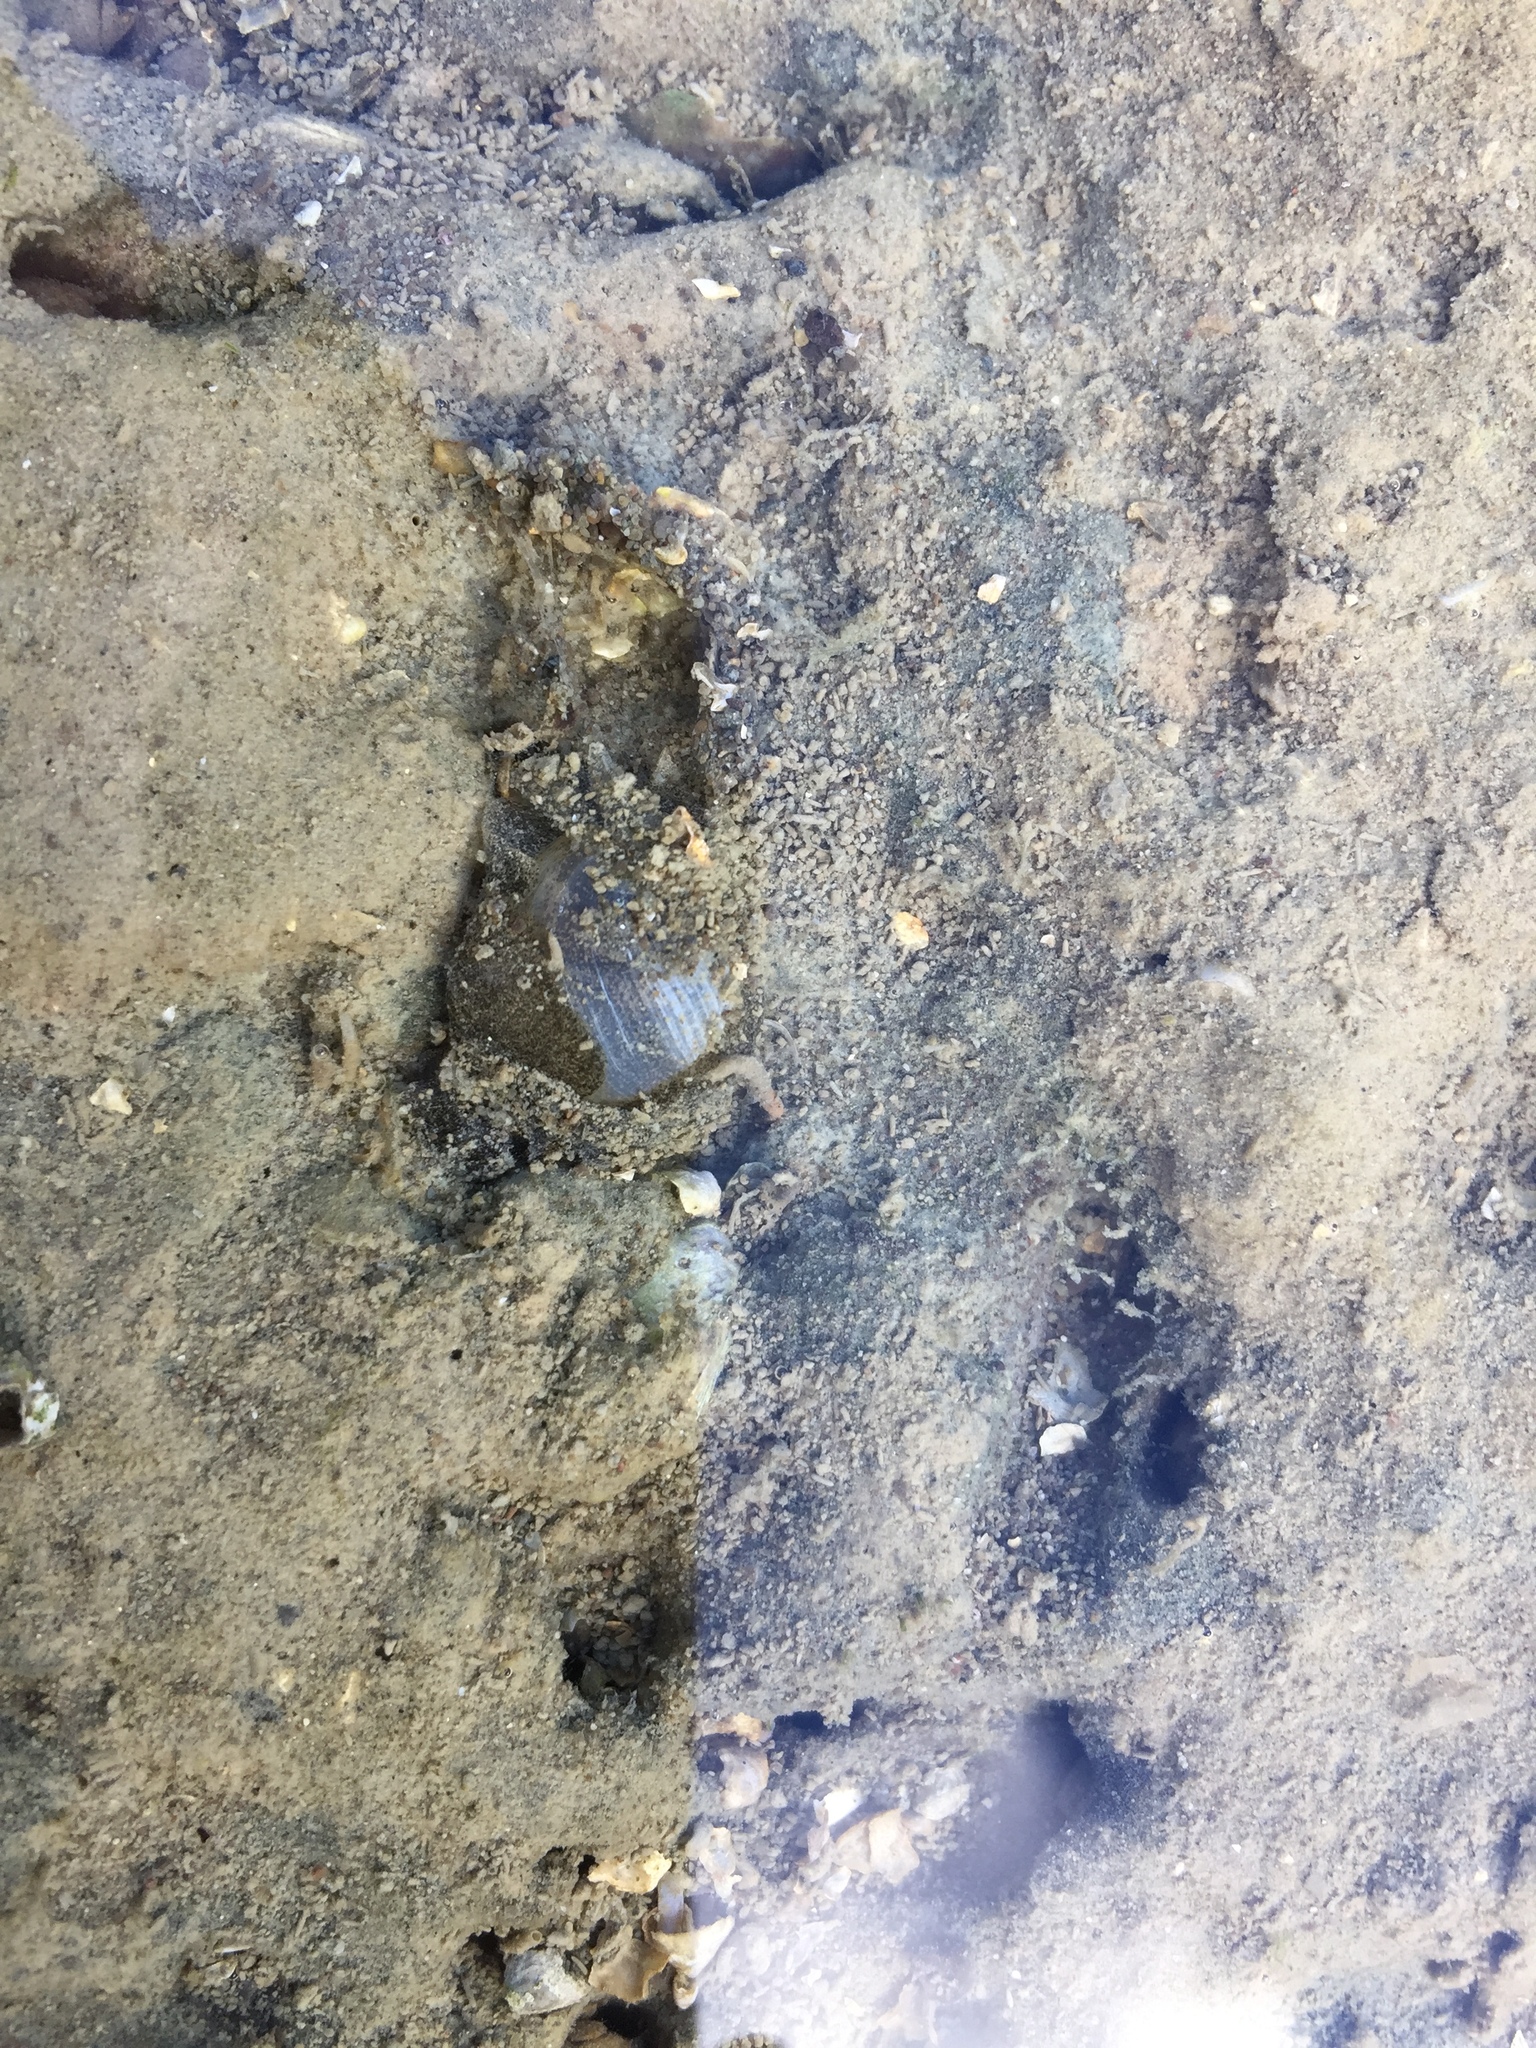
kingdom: Animalia
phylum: Mollusca
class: Gastropoda
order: Cephalaspidea
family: Haminoeidae
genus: Papawera
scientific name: Papawera zelandiae
